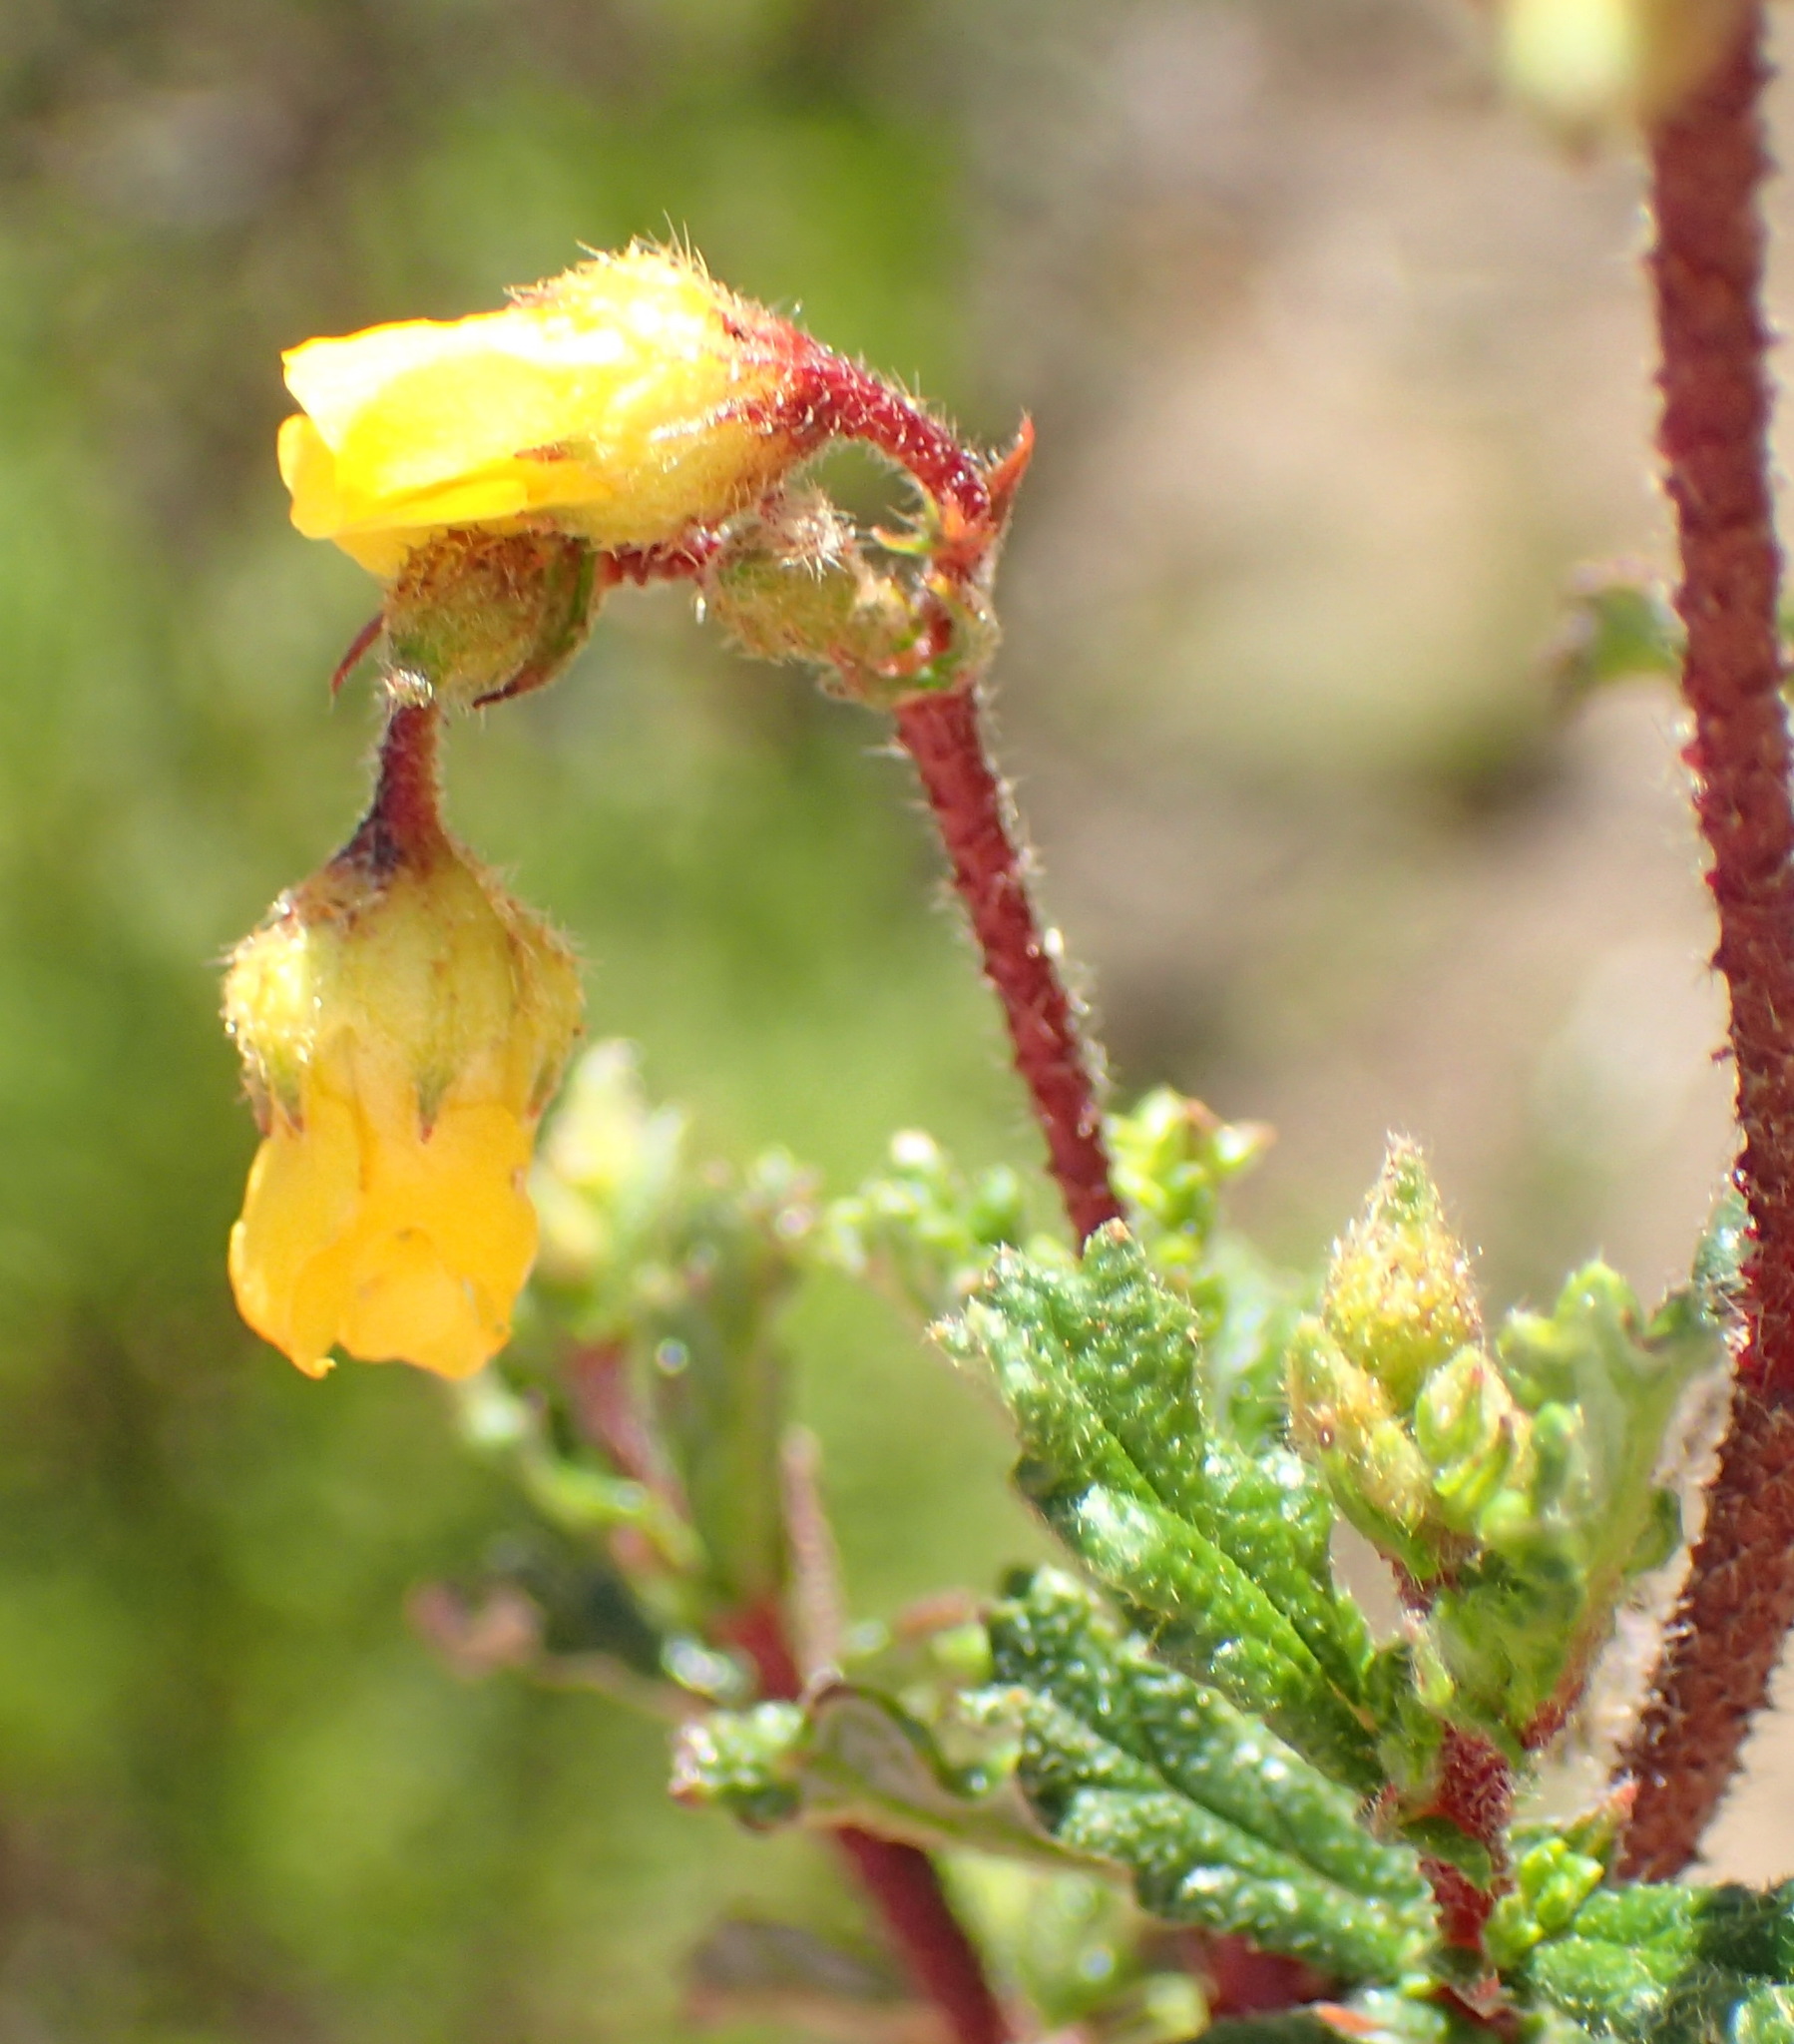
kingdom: Plantae
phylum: Tracheophyta
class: Magnoliopsida
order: Malvales
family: Malvaceae
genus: Hermannia
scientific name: Hermannia aspera
